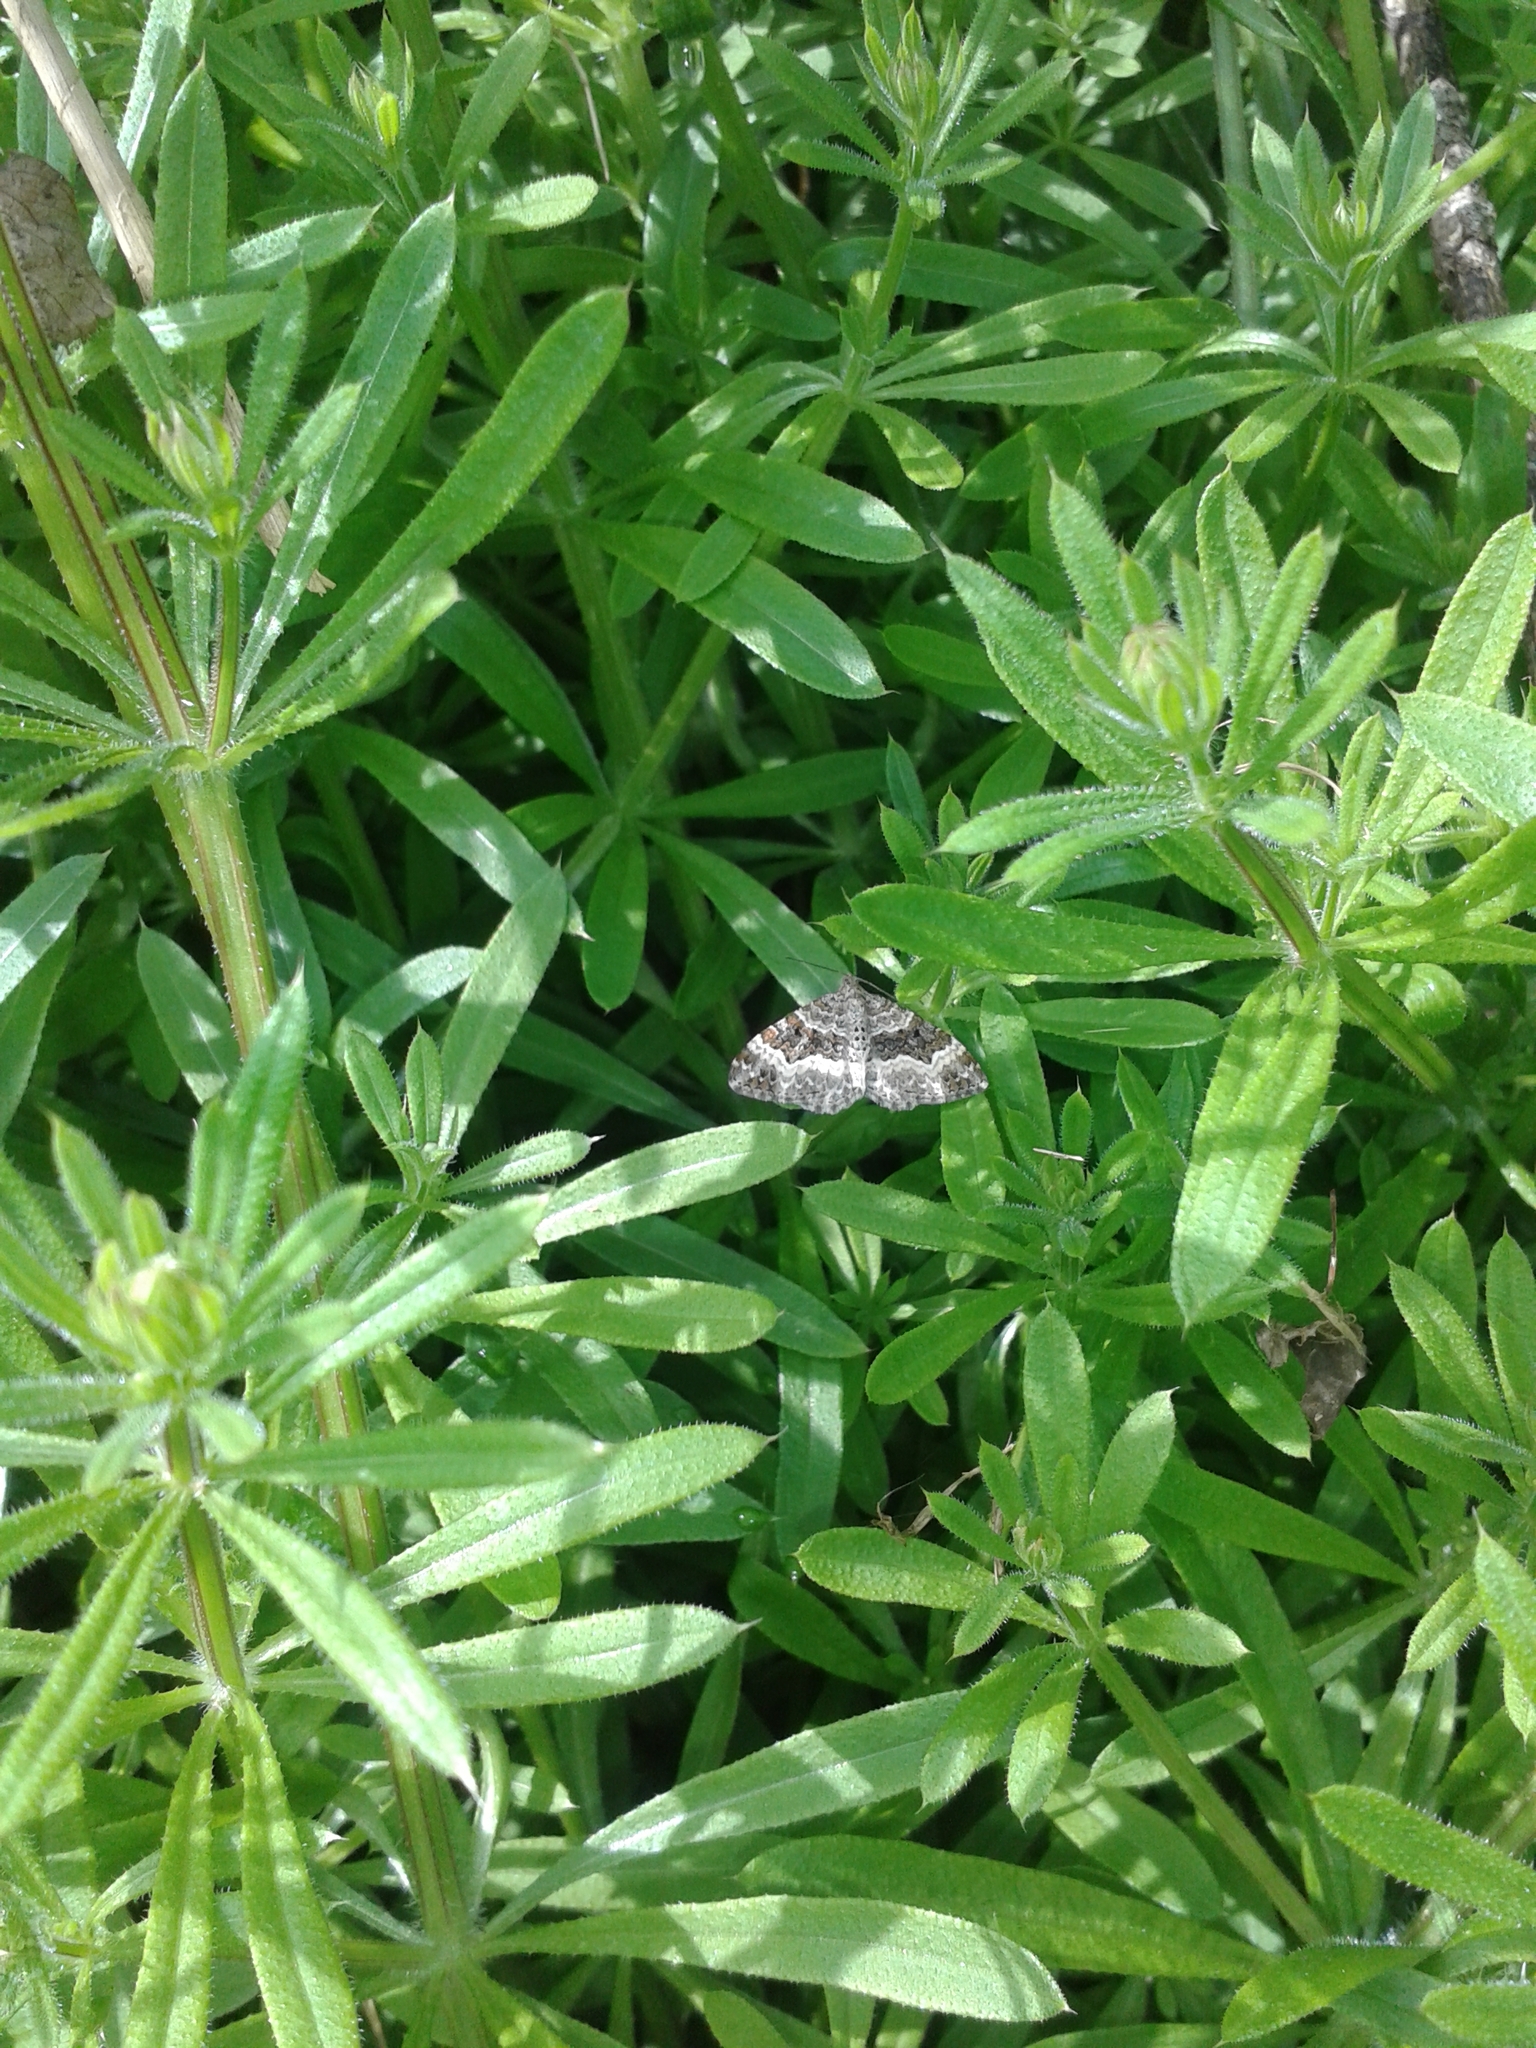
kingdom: Animalia
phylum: Arthropoda
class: Insecta
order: Lepidoptera
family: Geometridae
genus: Epirrhoe
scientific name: Epirrhoe alternata
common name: Common carpet
